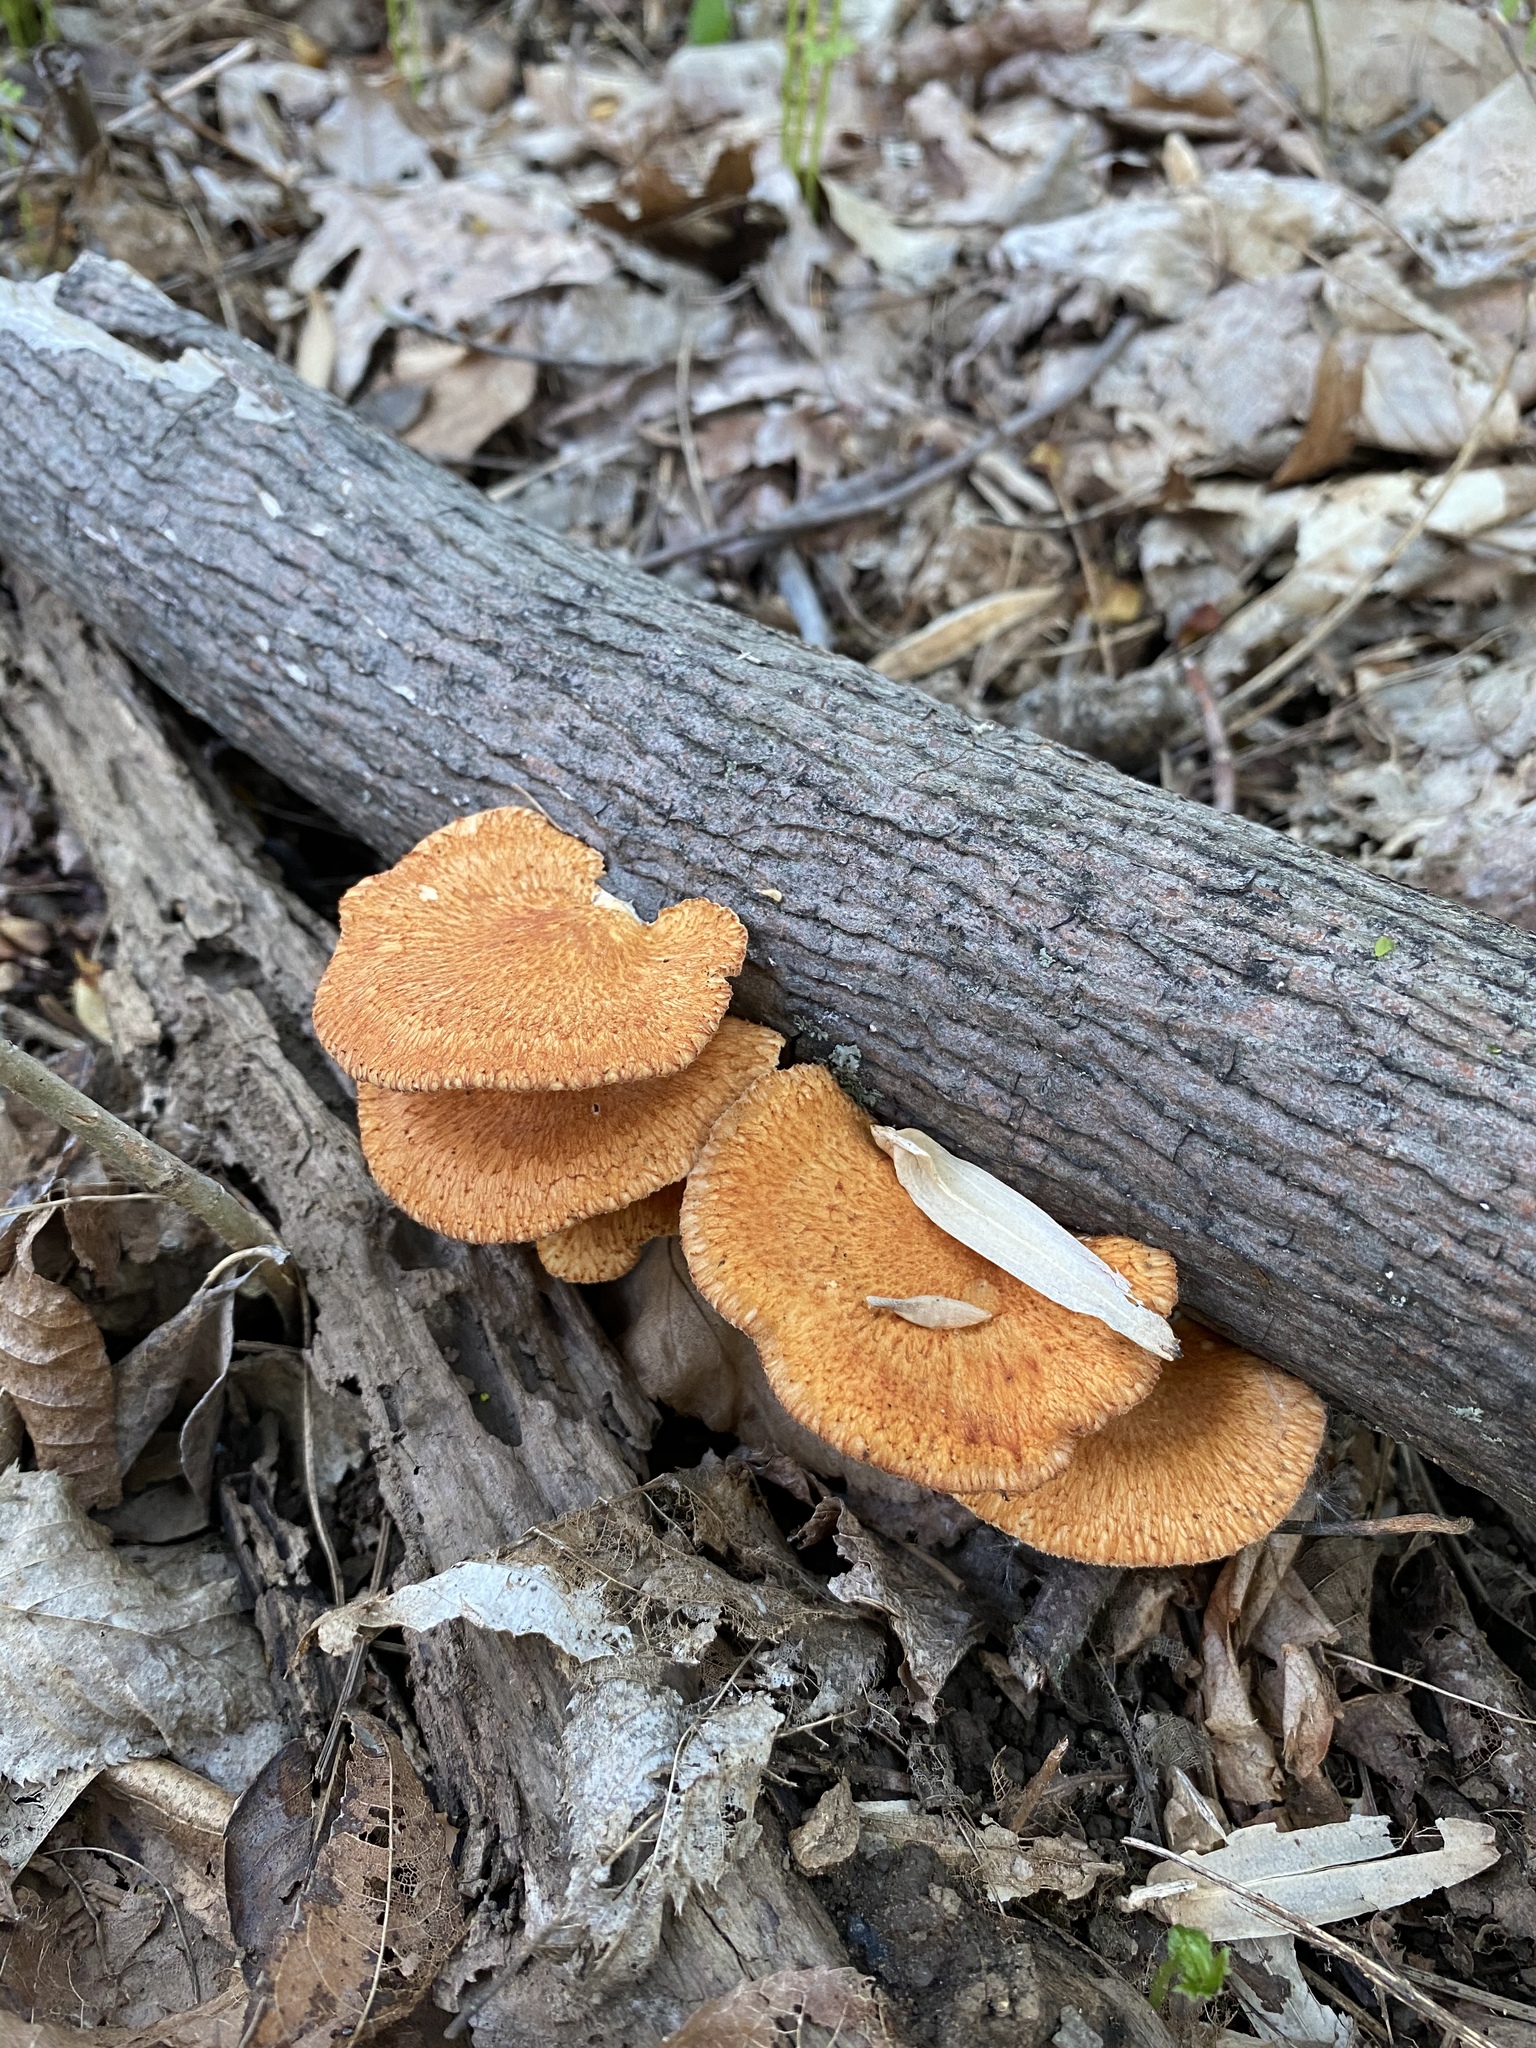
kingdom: Fungi
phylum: Basidiomycota
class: Agaricomycetes
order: Polyporales
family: Polyporaceae
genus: Neofavolus
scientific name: Neofavolus alveolaris
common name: Hexagonal-pored polypore
